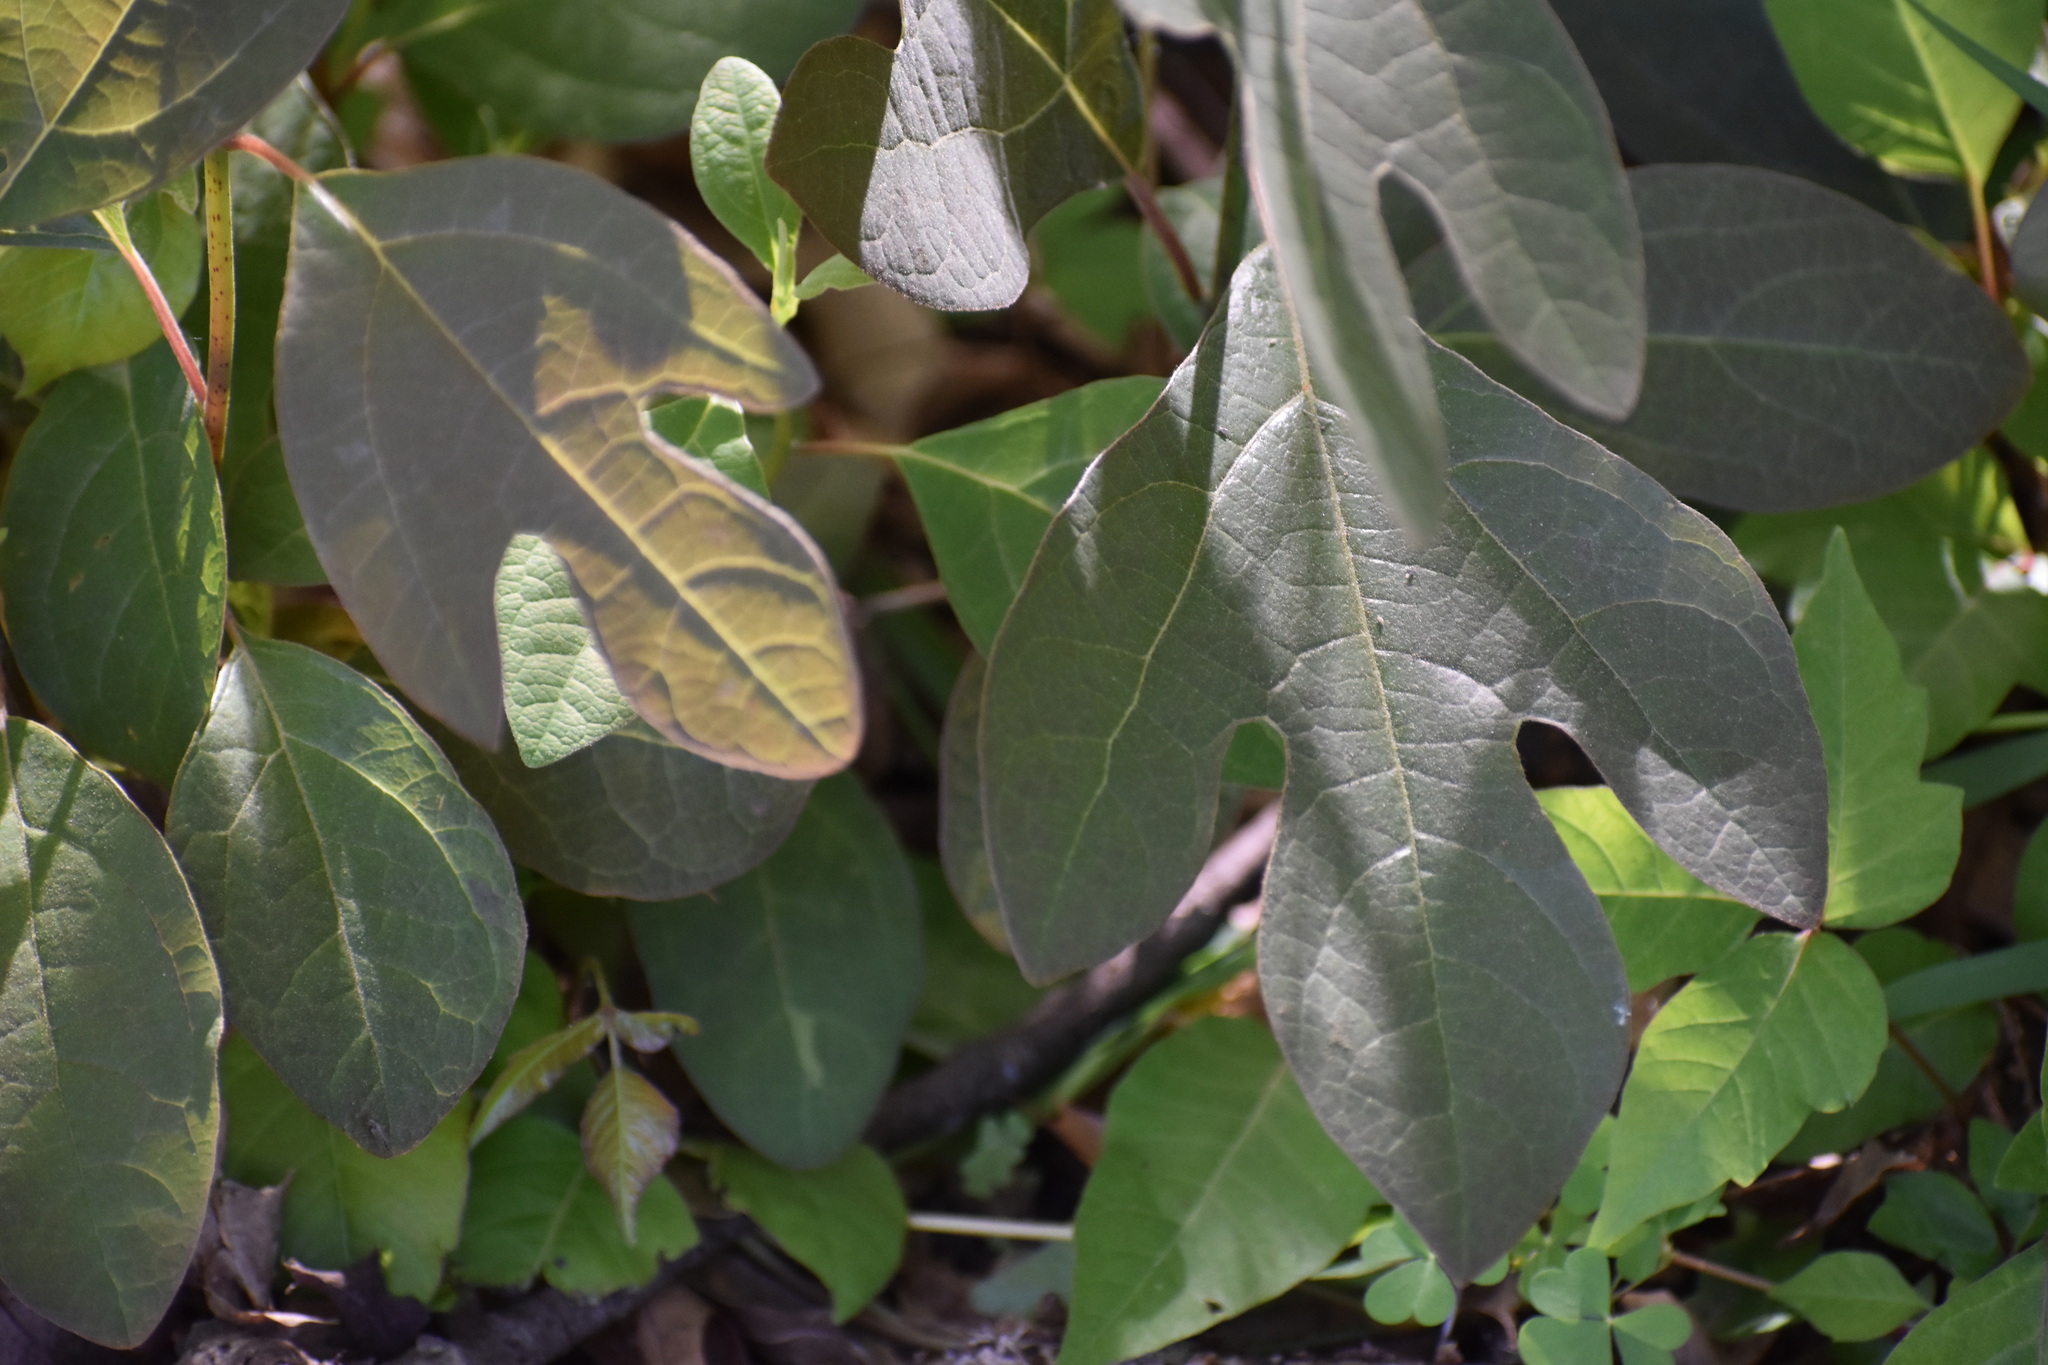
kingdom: Plantae
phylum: Tracheophyta
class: Magnoliopsida
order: Laurales
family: Lauraceae
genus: Sassafras
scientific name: Sassafras albidum
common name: Sassafras
